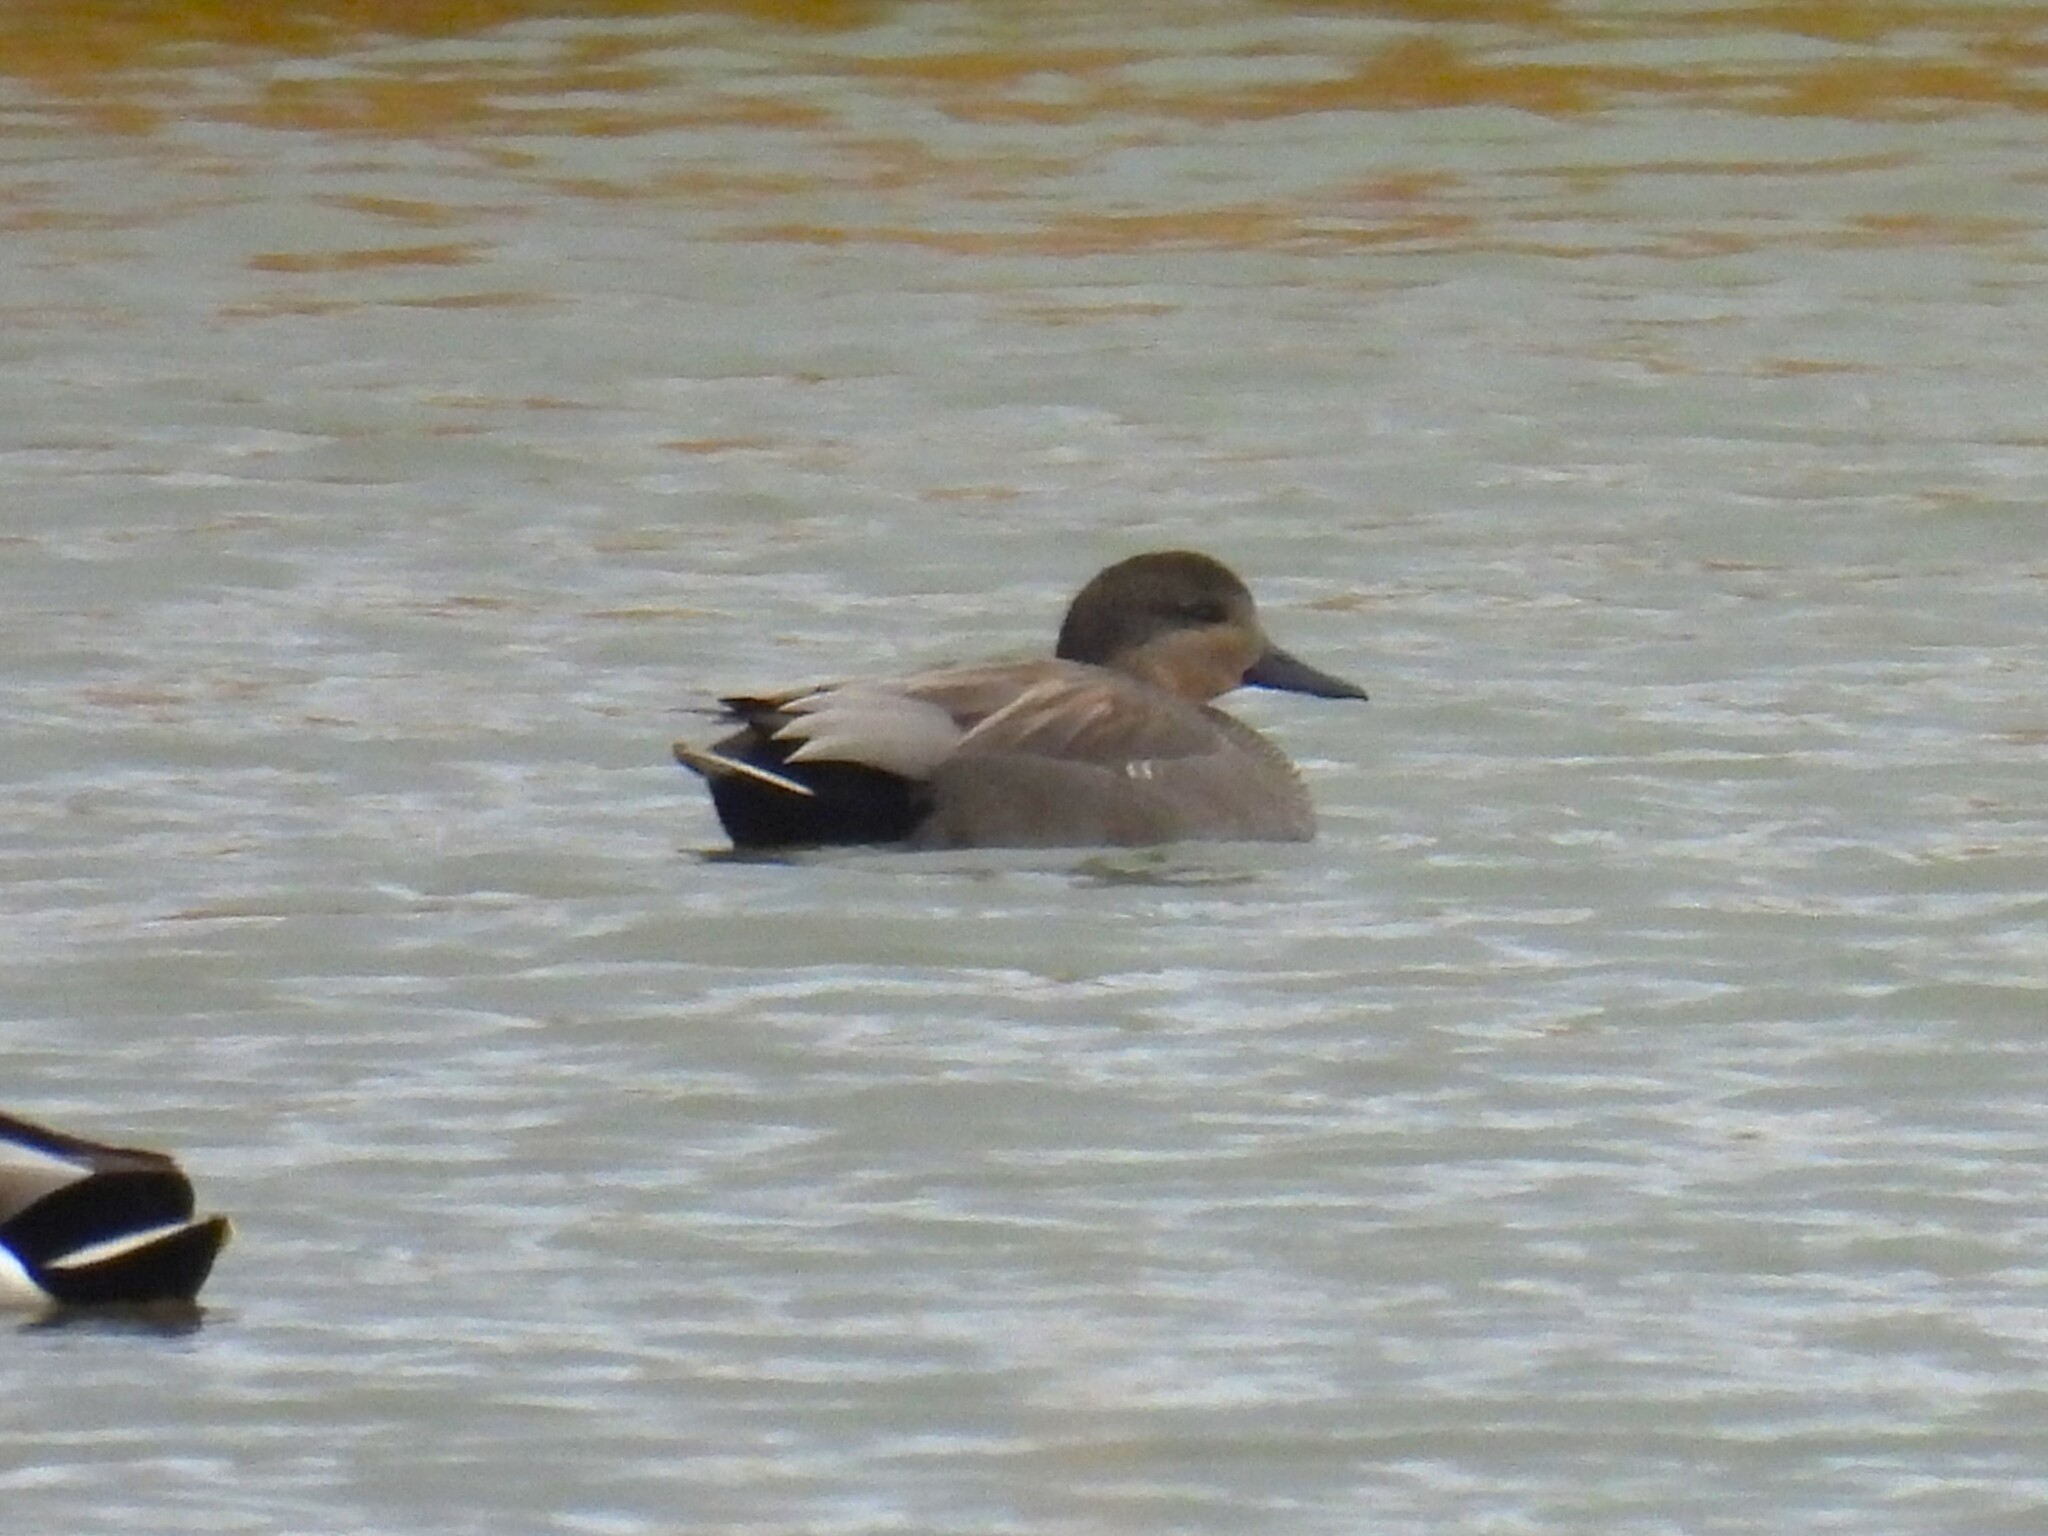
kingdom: Animalia
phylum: Chordata
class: Aves
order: Anseriformes
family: Anatidae
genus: Mareca
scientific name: Mareca strepera
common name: Gadwall
